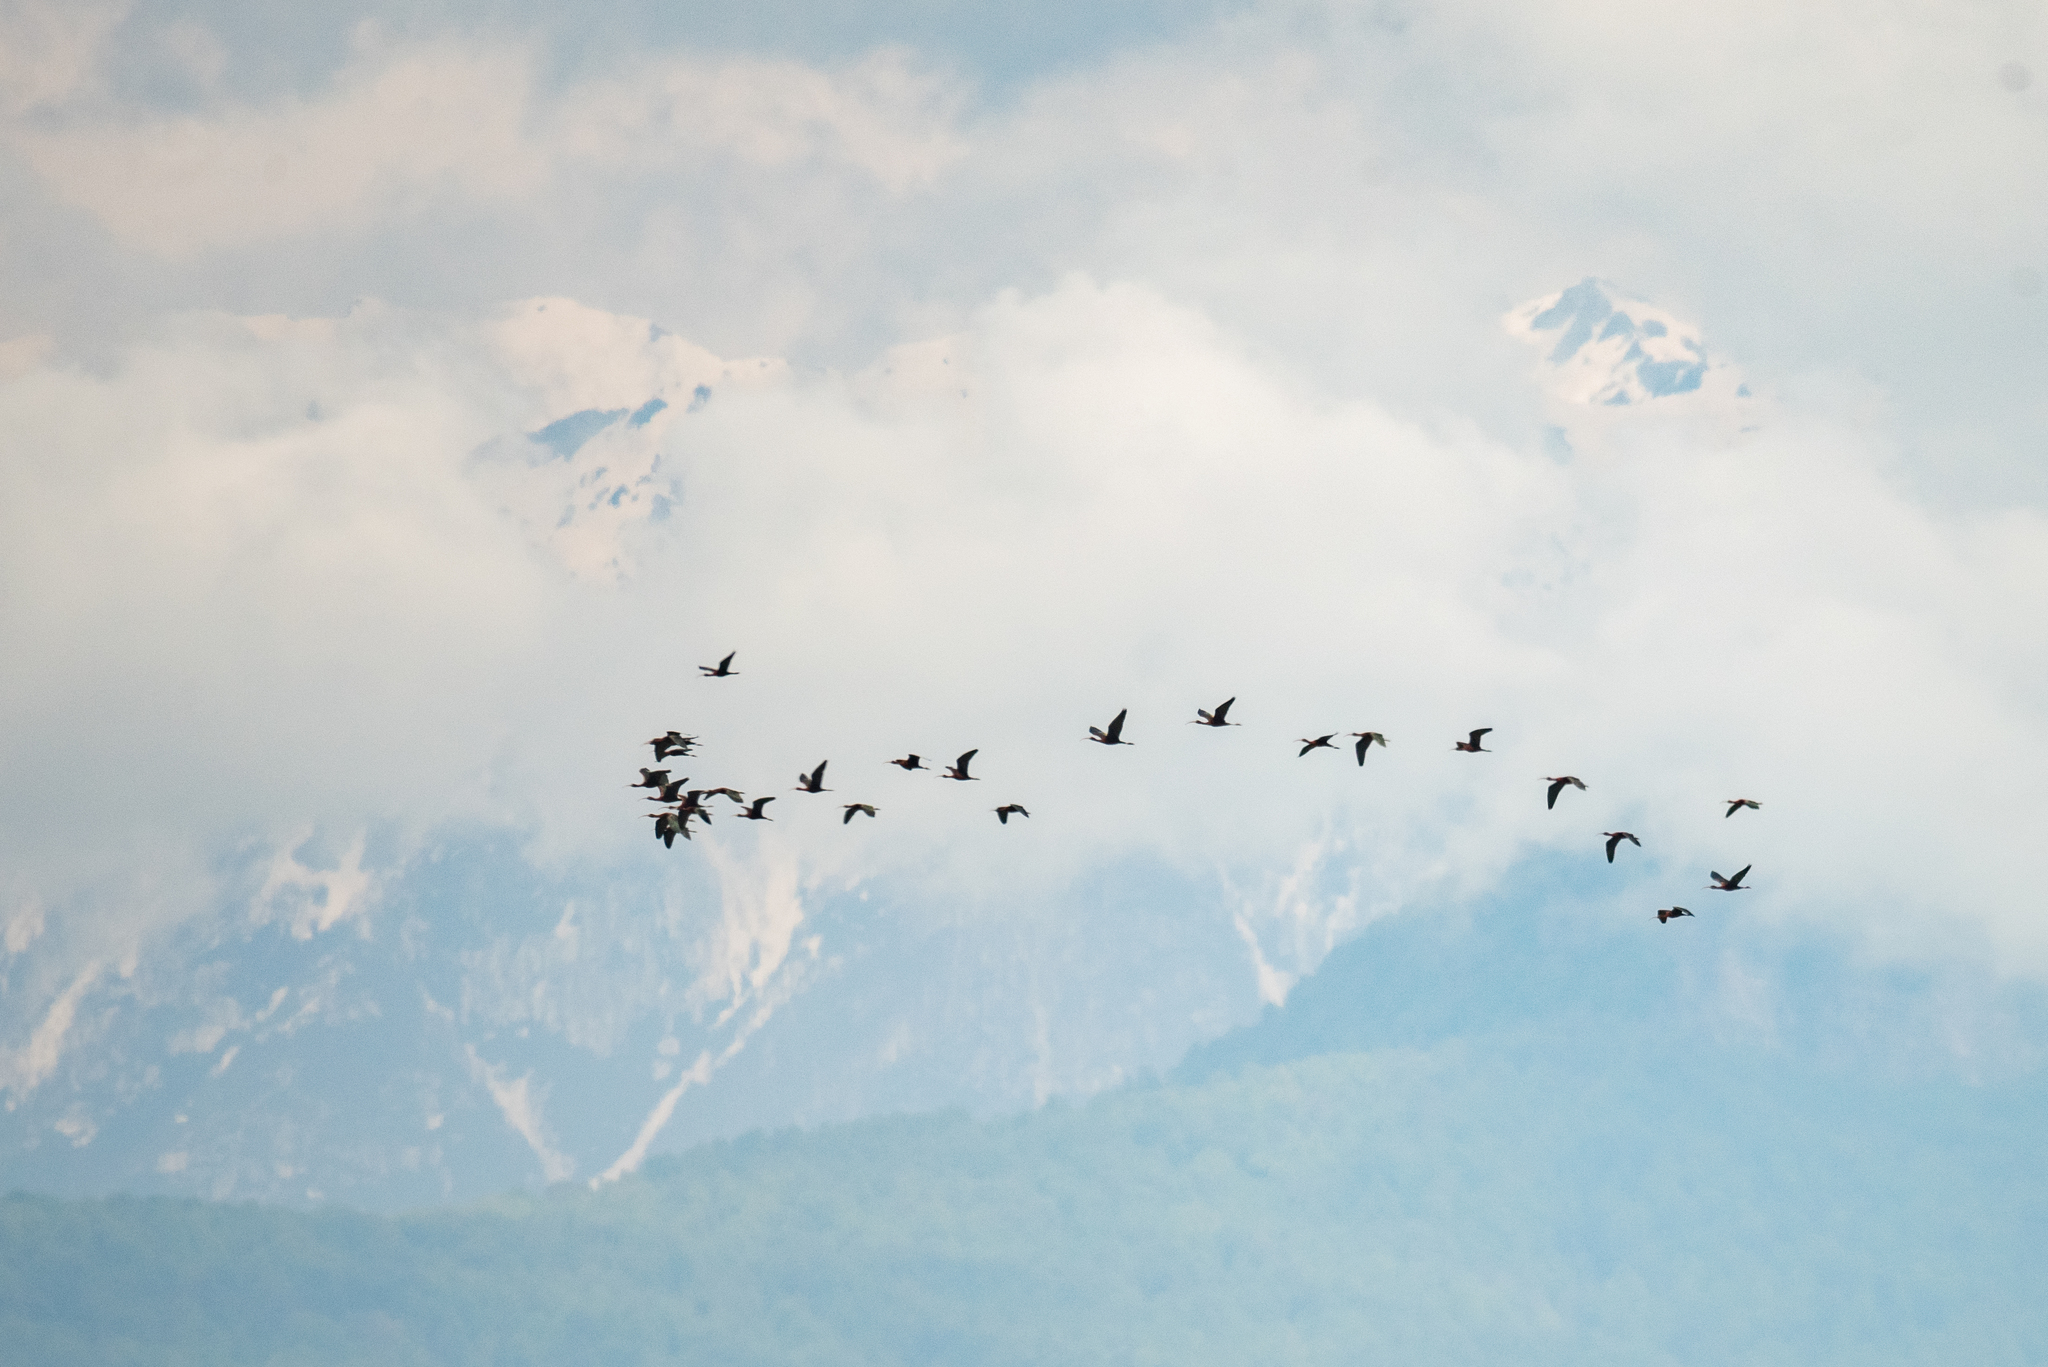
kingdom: Animalia
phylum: Chordata
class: Aves
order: Pelecaniformes
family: Threskiornithidae
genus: Plegadis
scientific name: Plegadis falcinellus
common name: Glossy ibis
